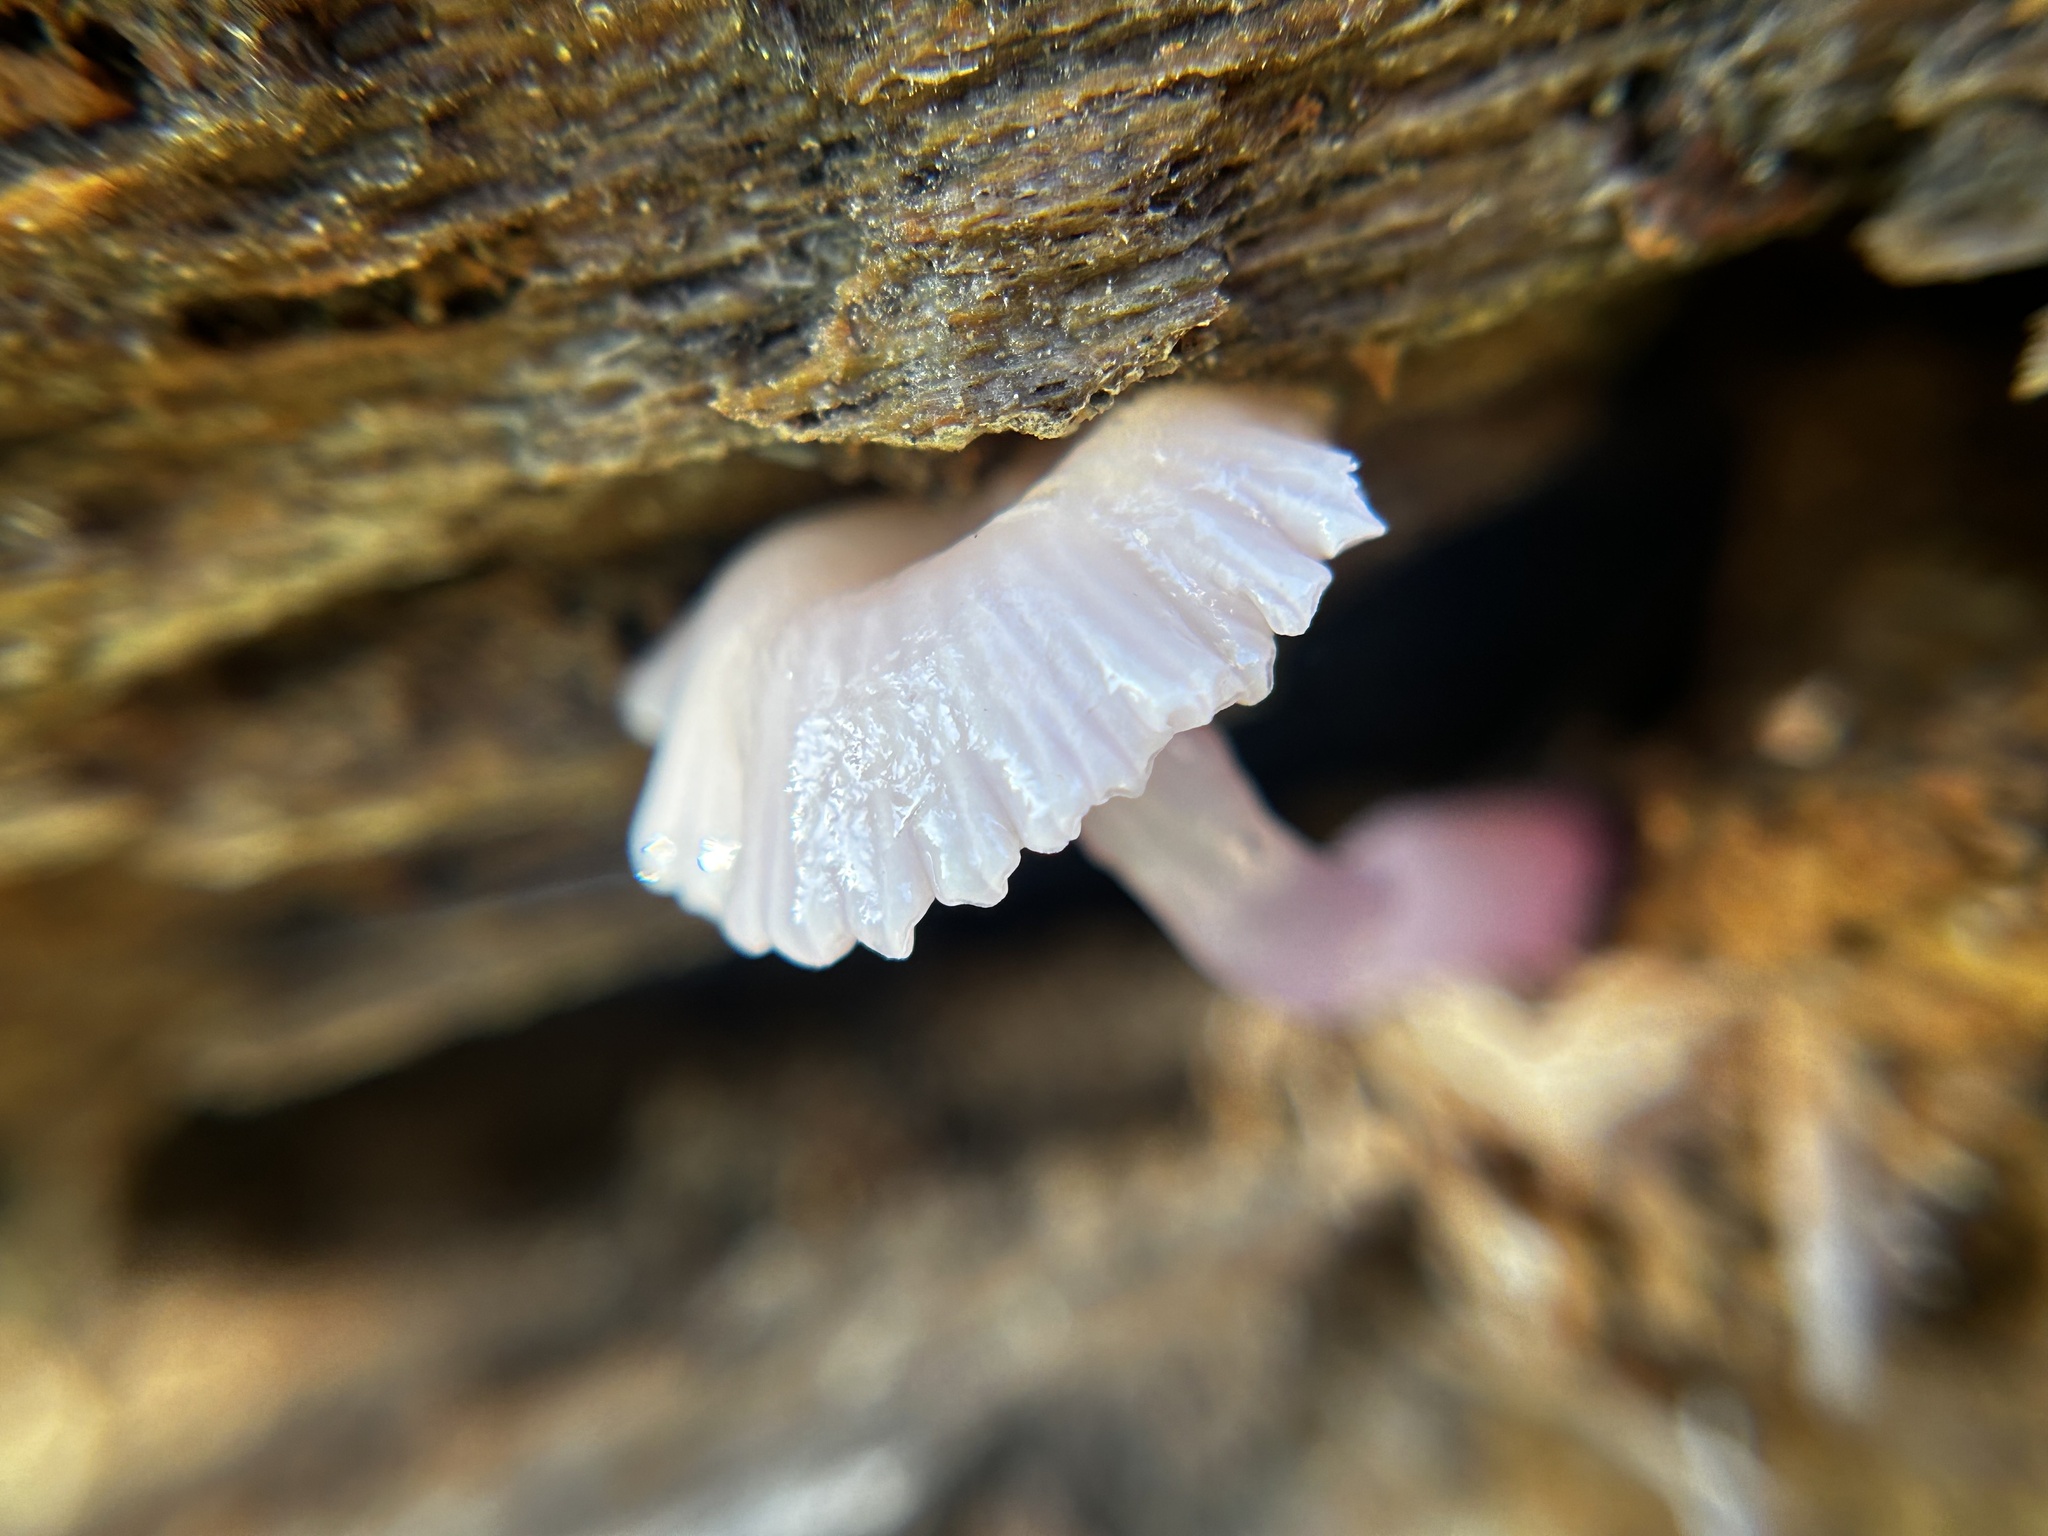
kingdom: Fungi
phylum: Basidiomycota
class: Agaricomycetes
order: Agaricales
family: Hygrophoraceae
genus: Chromosera
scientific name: Chromosera cyanophylla
